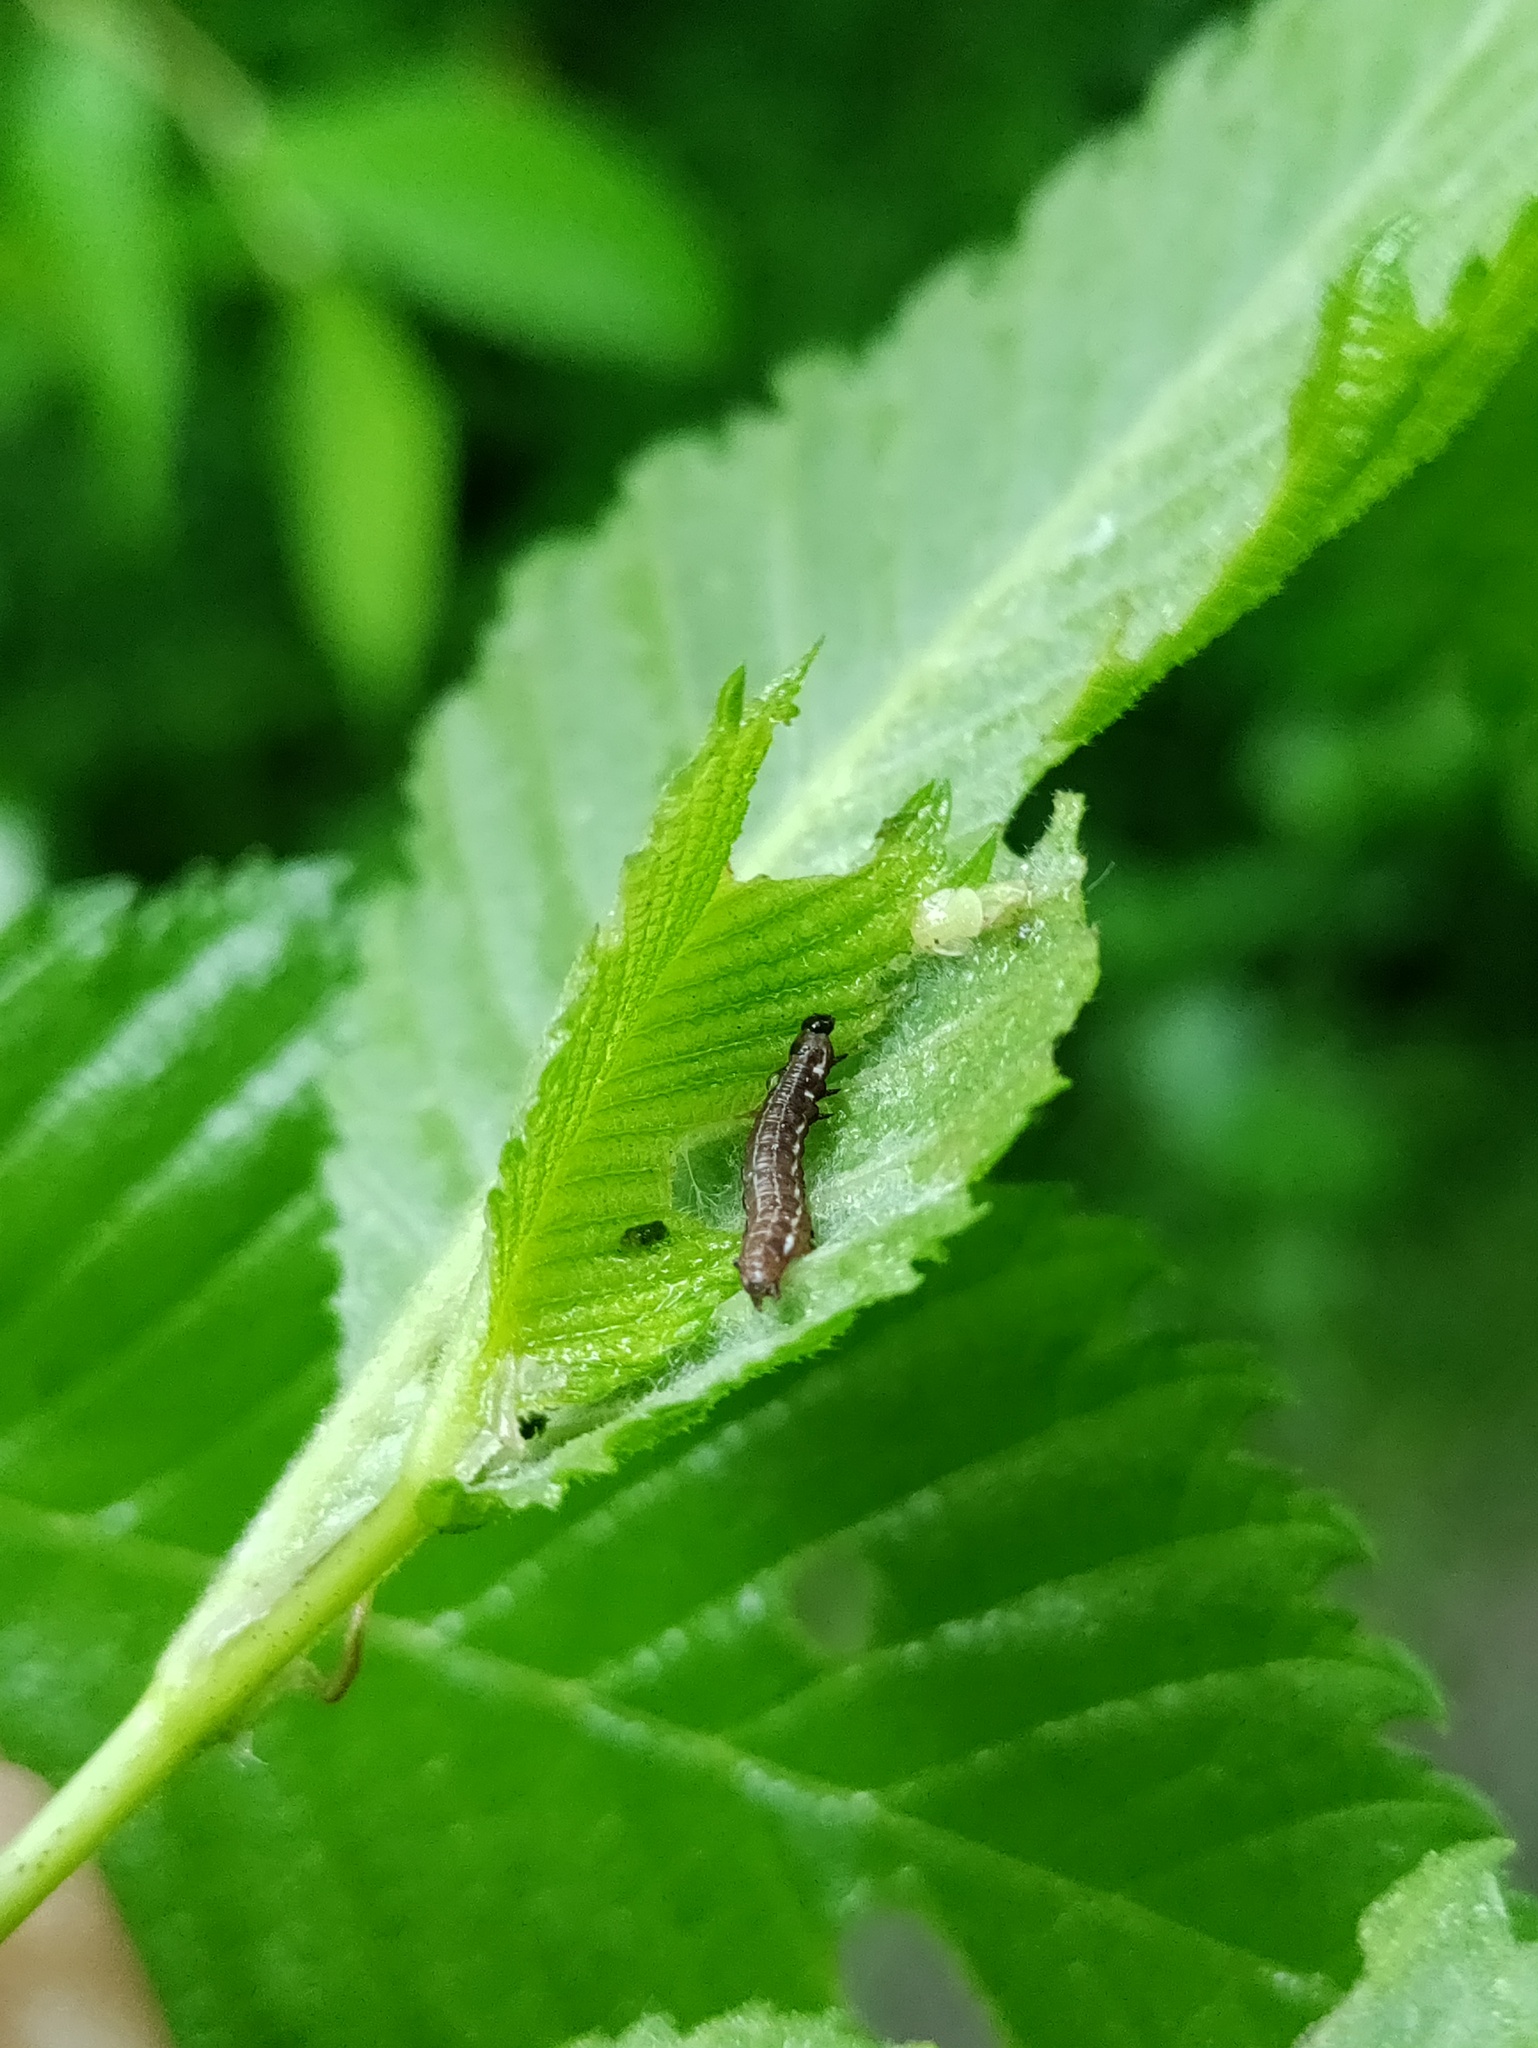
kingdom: Animalia
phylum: Arthropoda
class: Insecta
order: Lepidoptera
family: Noctuidae
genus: Eupsilia
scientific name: Eupsilia transversa
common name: Satellite
